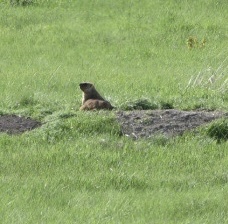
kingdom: Animalia
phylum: Chordata
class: Mammalia
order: Rodentia
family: Sciuridae
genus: Marmota
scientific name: Marmota bobak
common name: Bobak marmot
